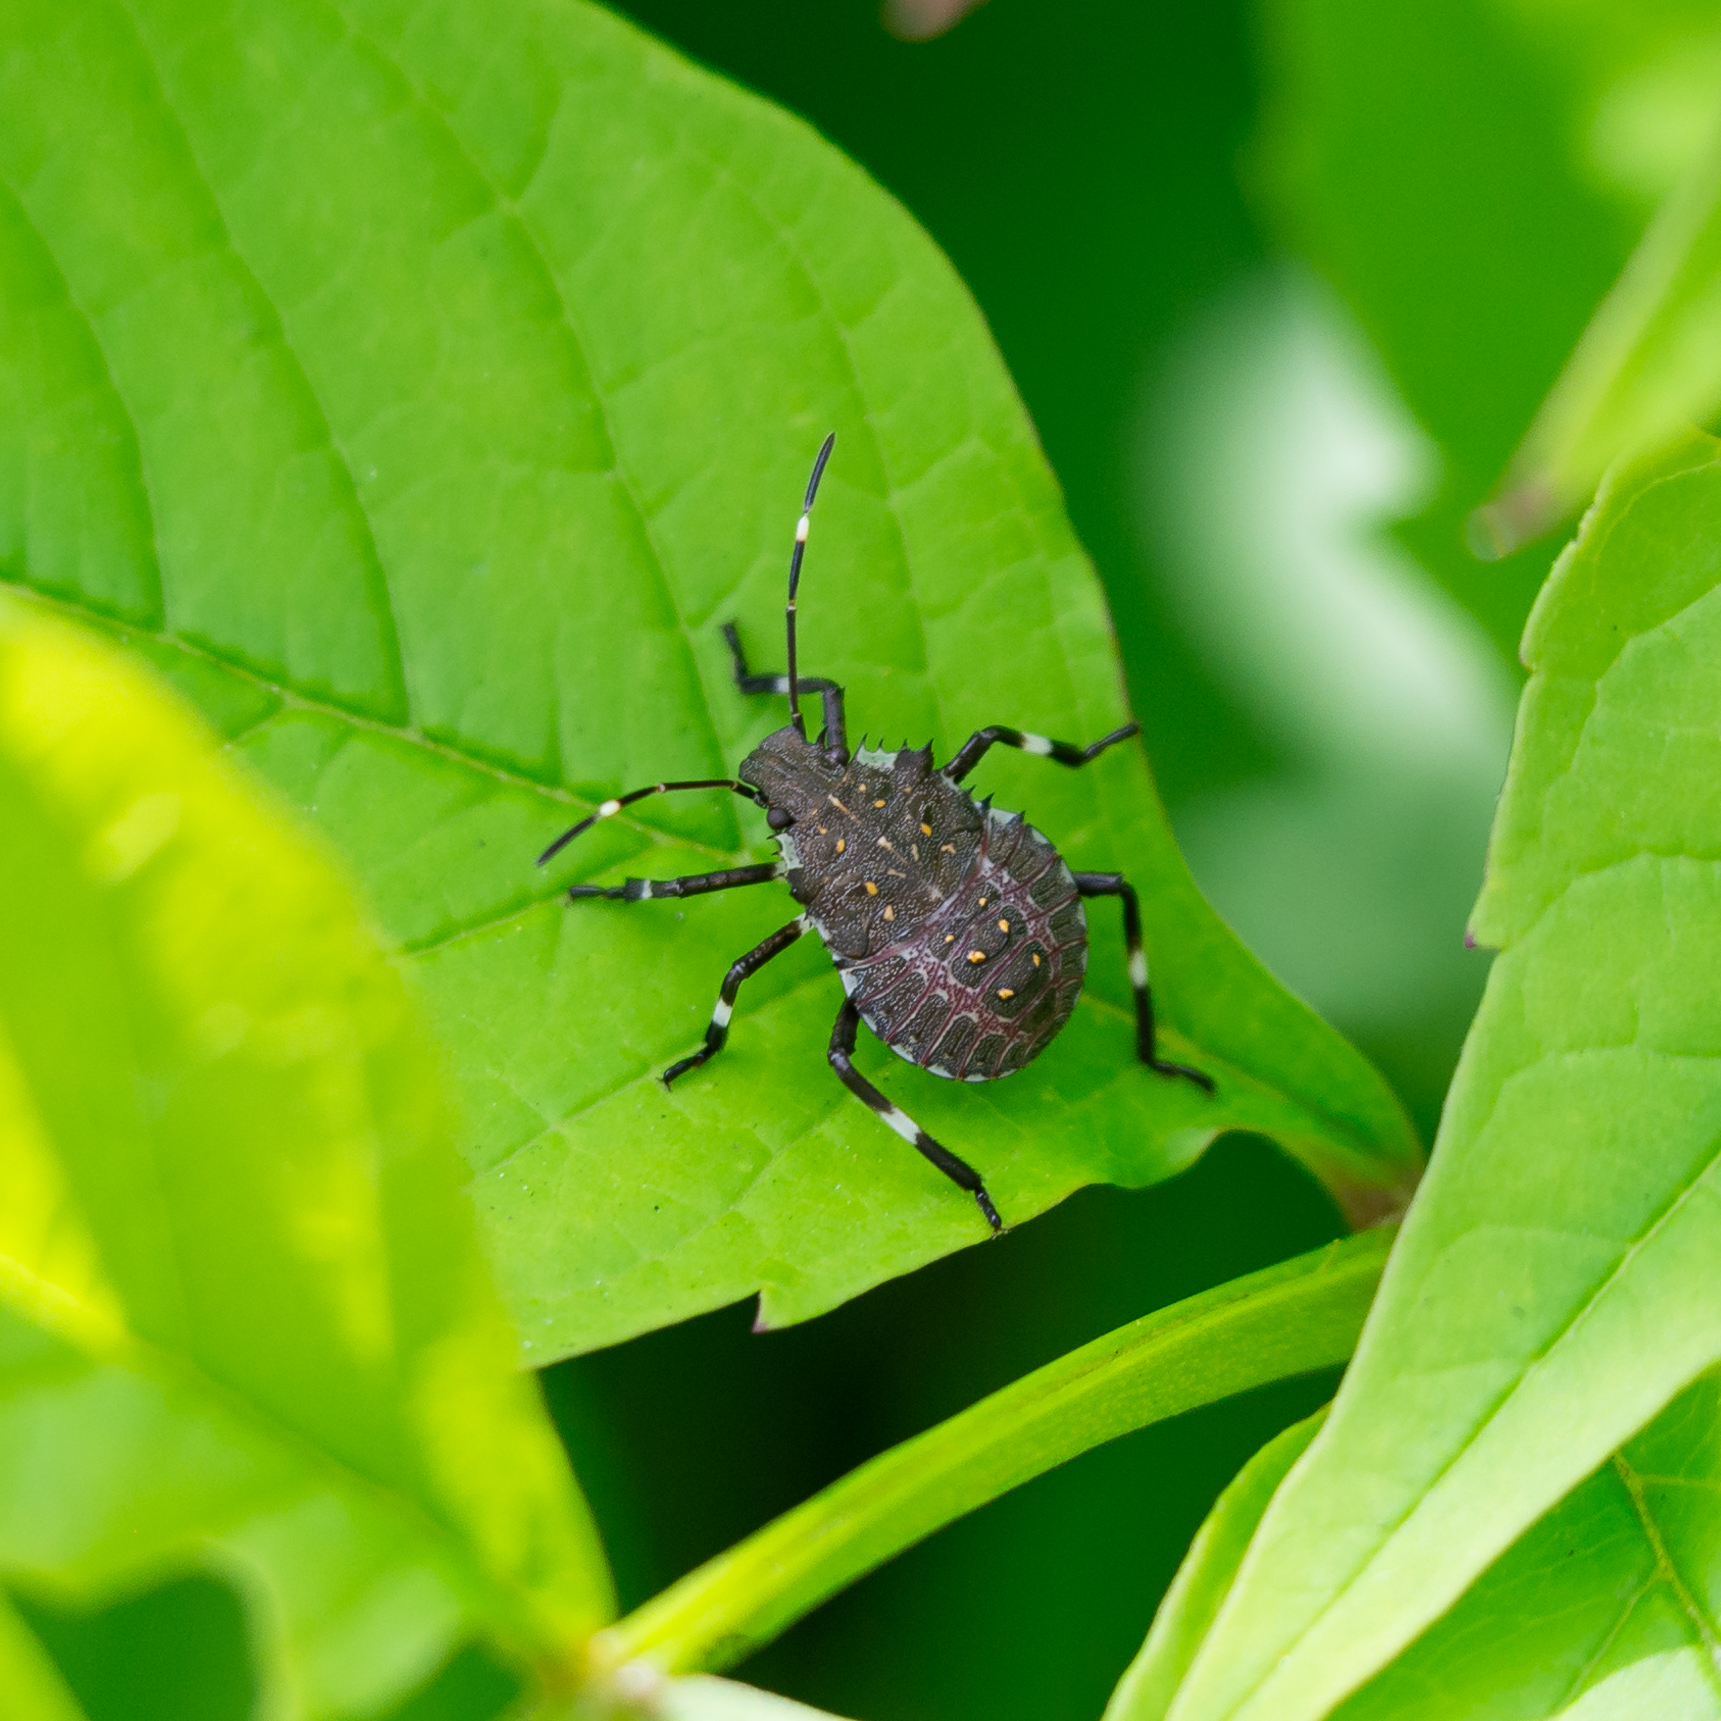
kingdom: Animalia
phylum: Arthropoda
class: Insecta
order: Hemiptera
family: Pentatomidae
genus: Halyomorpha
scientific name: Halyomorpha halys
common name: Brown marmorated stink bug
